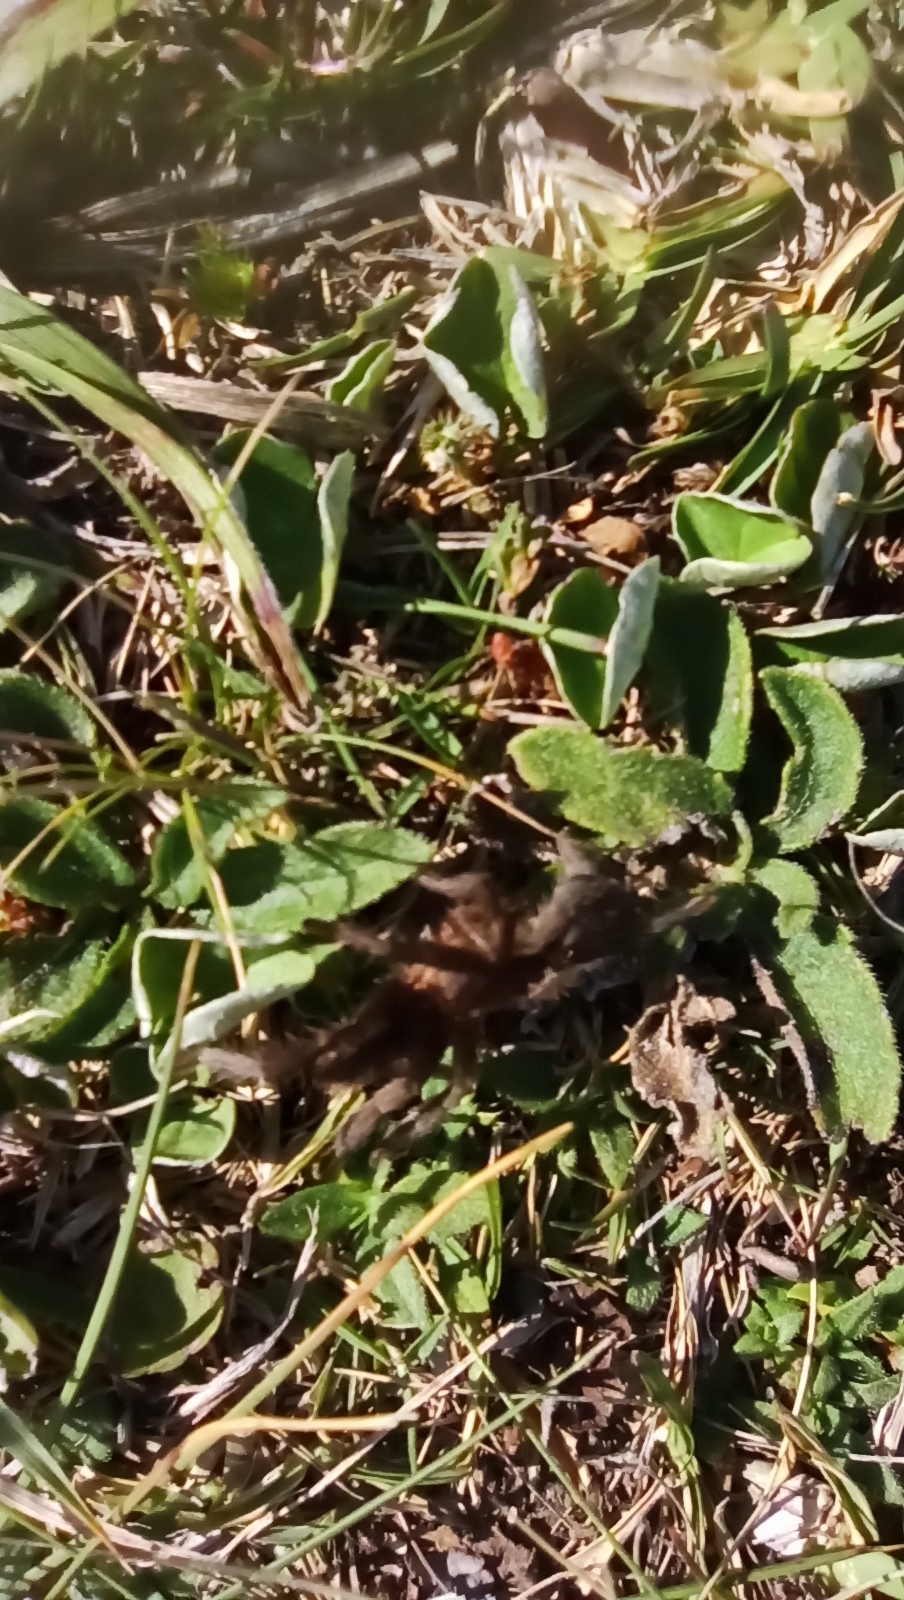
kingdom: Animalia
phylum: Arthropoda
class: Arachnida
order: Araneae
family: Theraphosidae
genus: Catumiri
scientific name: Catumiri parvum
